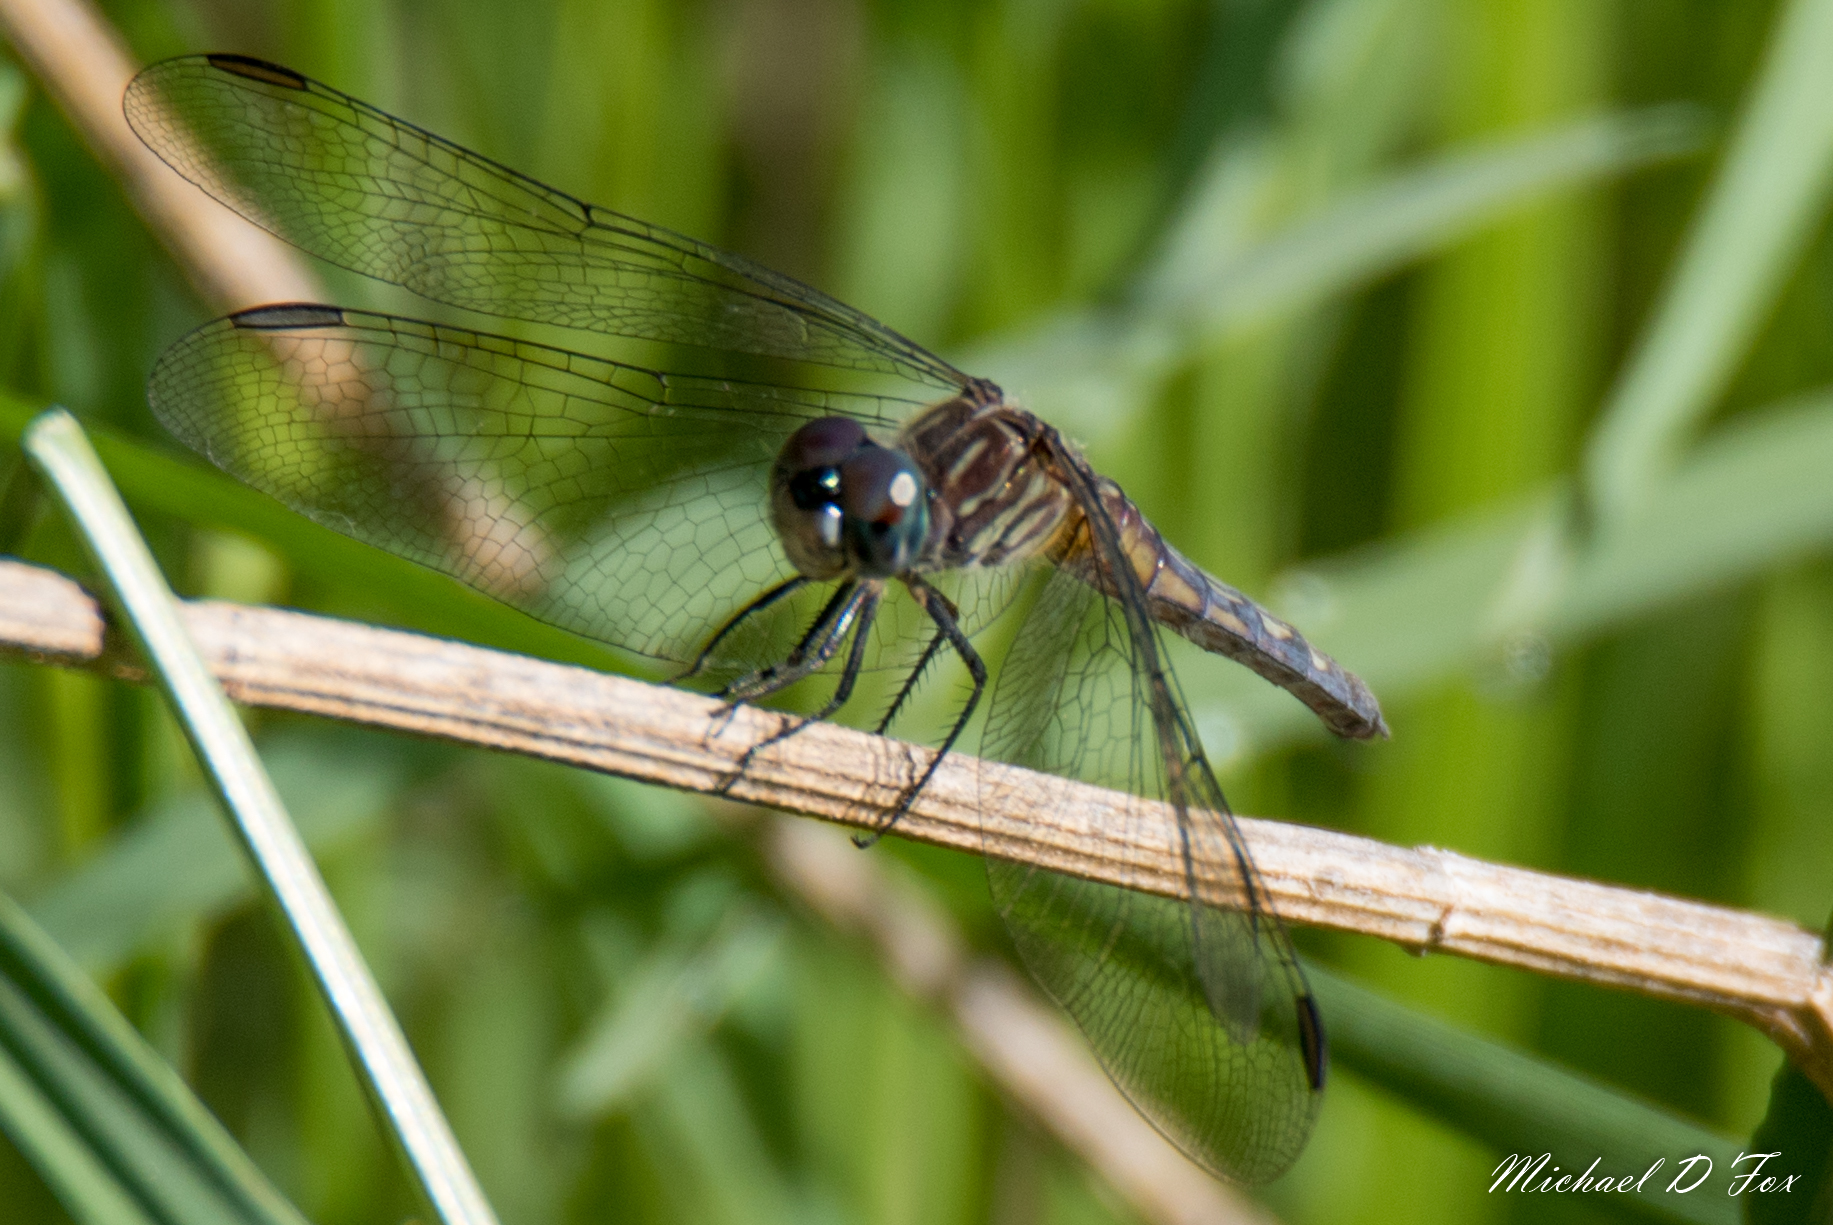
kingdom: Animalia
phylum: Arthropoda
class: Insecta
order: Odonata
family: Libellulidae
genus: Pachydiplax
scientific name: Pachydiplax longipennis
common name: Blue dasher
